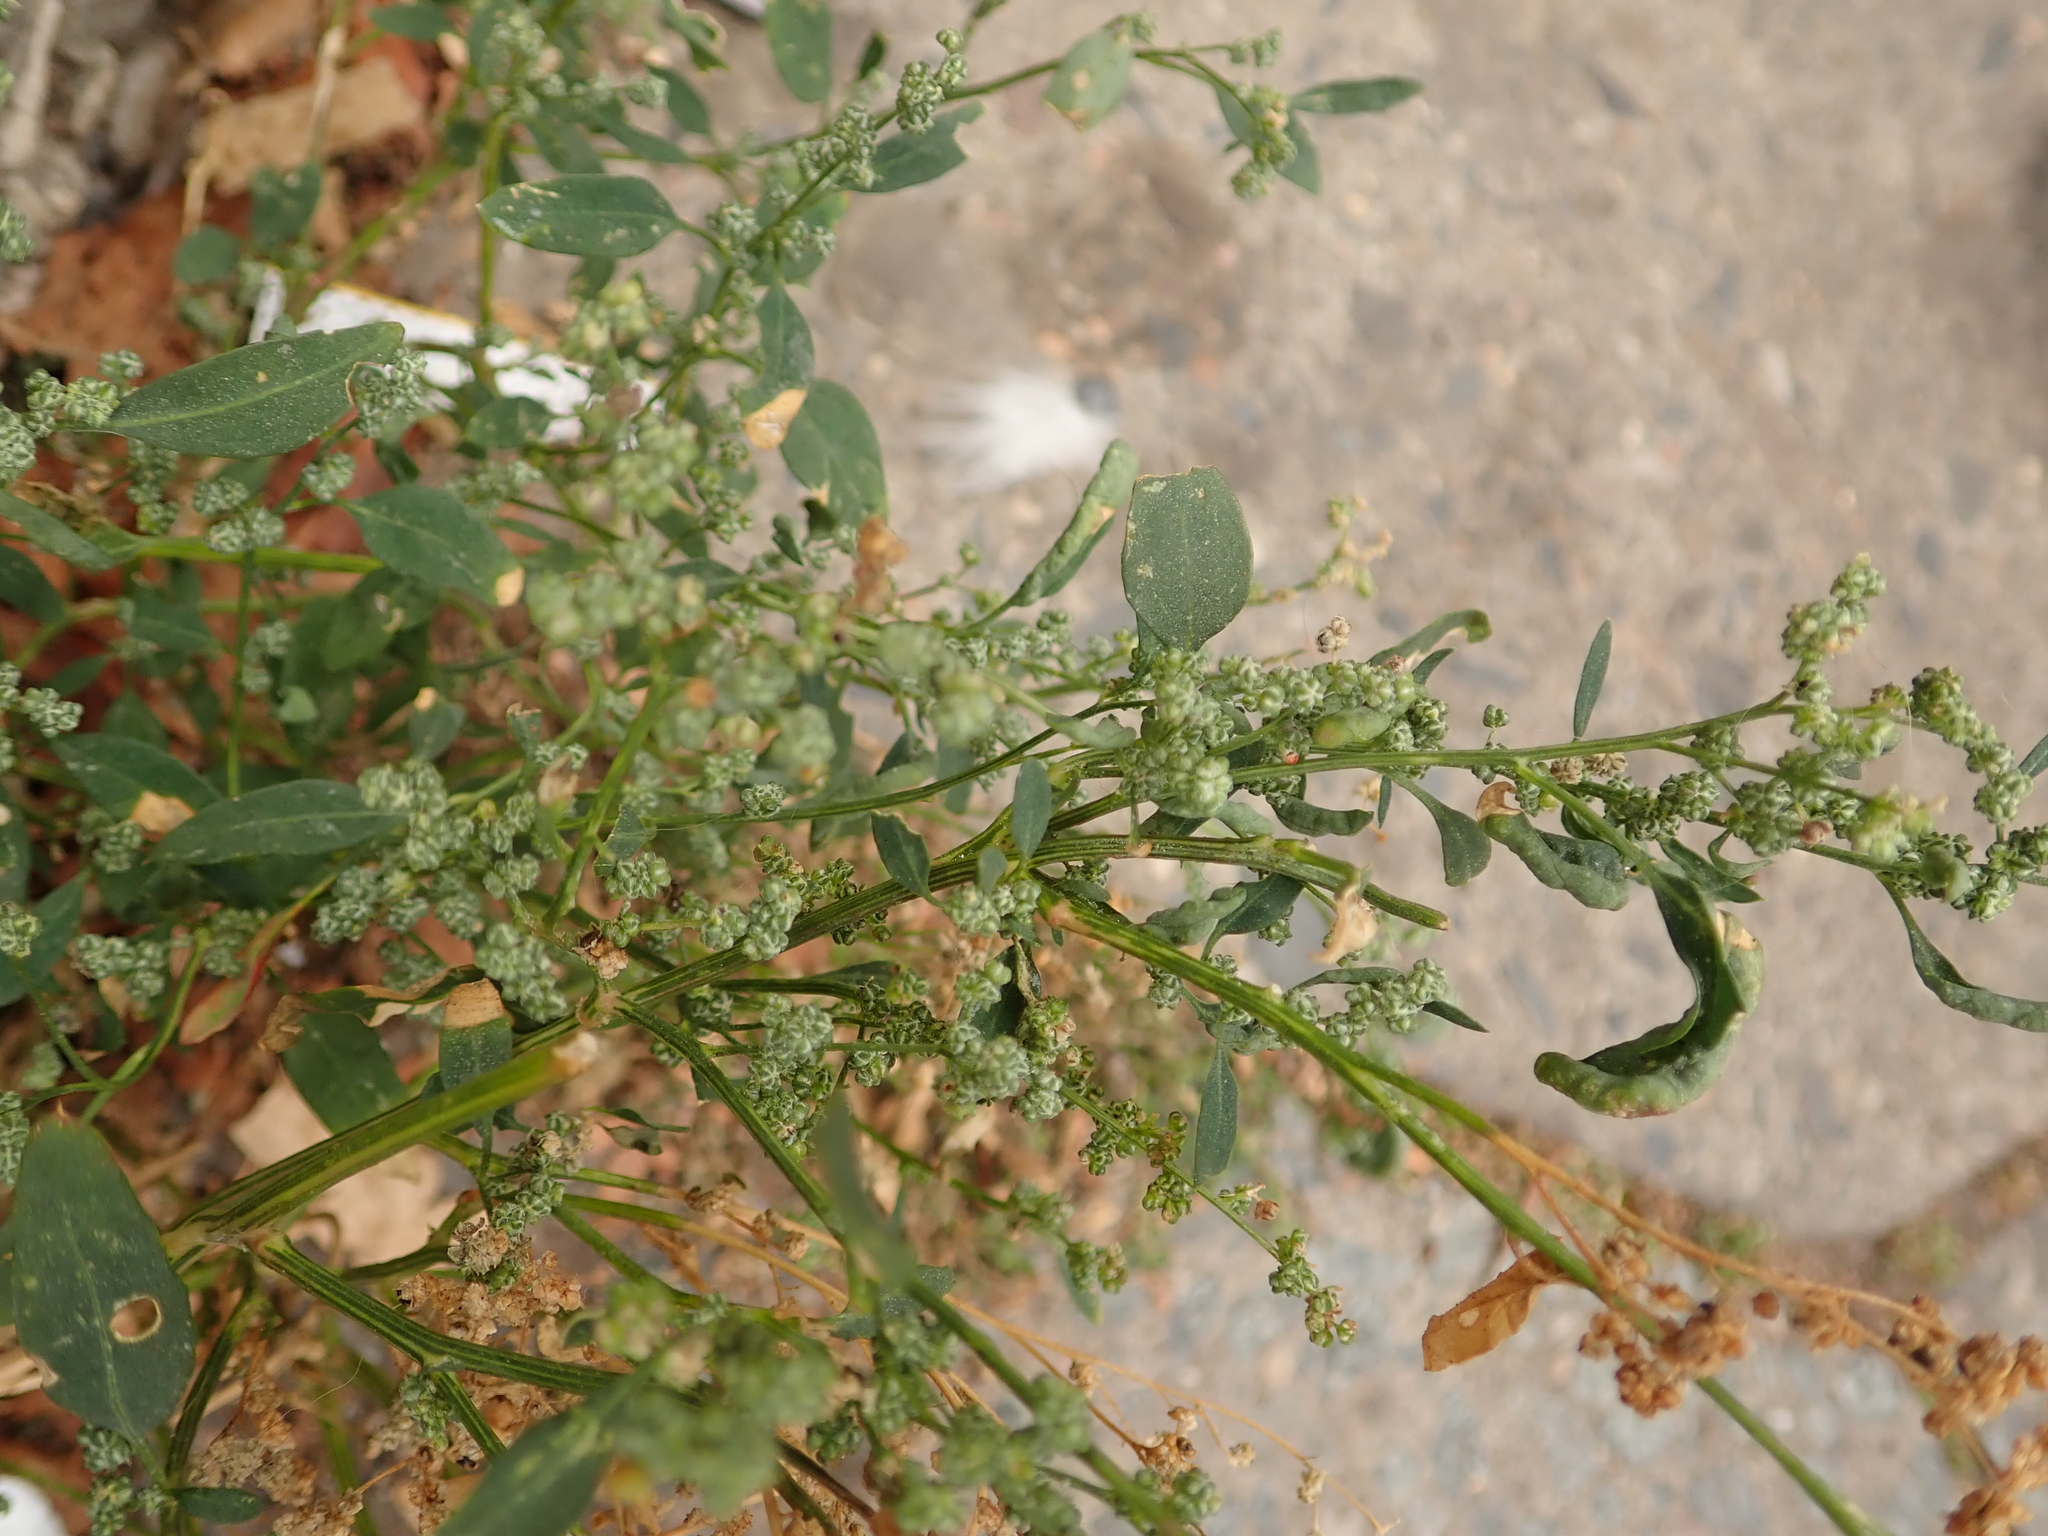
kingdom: Plantae
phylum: Tracheophyta
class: Magnoliopsida
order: Caryophyllales
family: Amaranthaceae
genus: Chenopodium
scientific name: Chenopodium album
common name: Fat-hen
